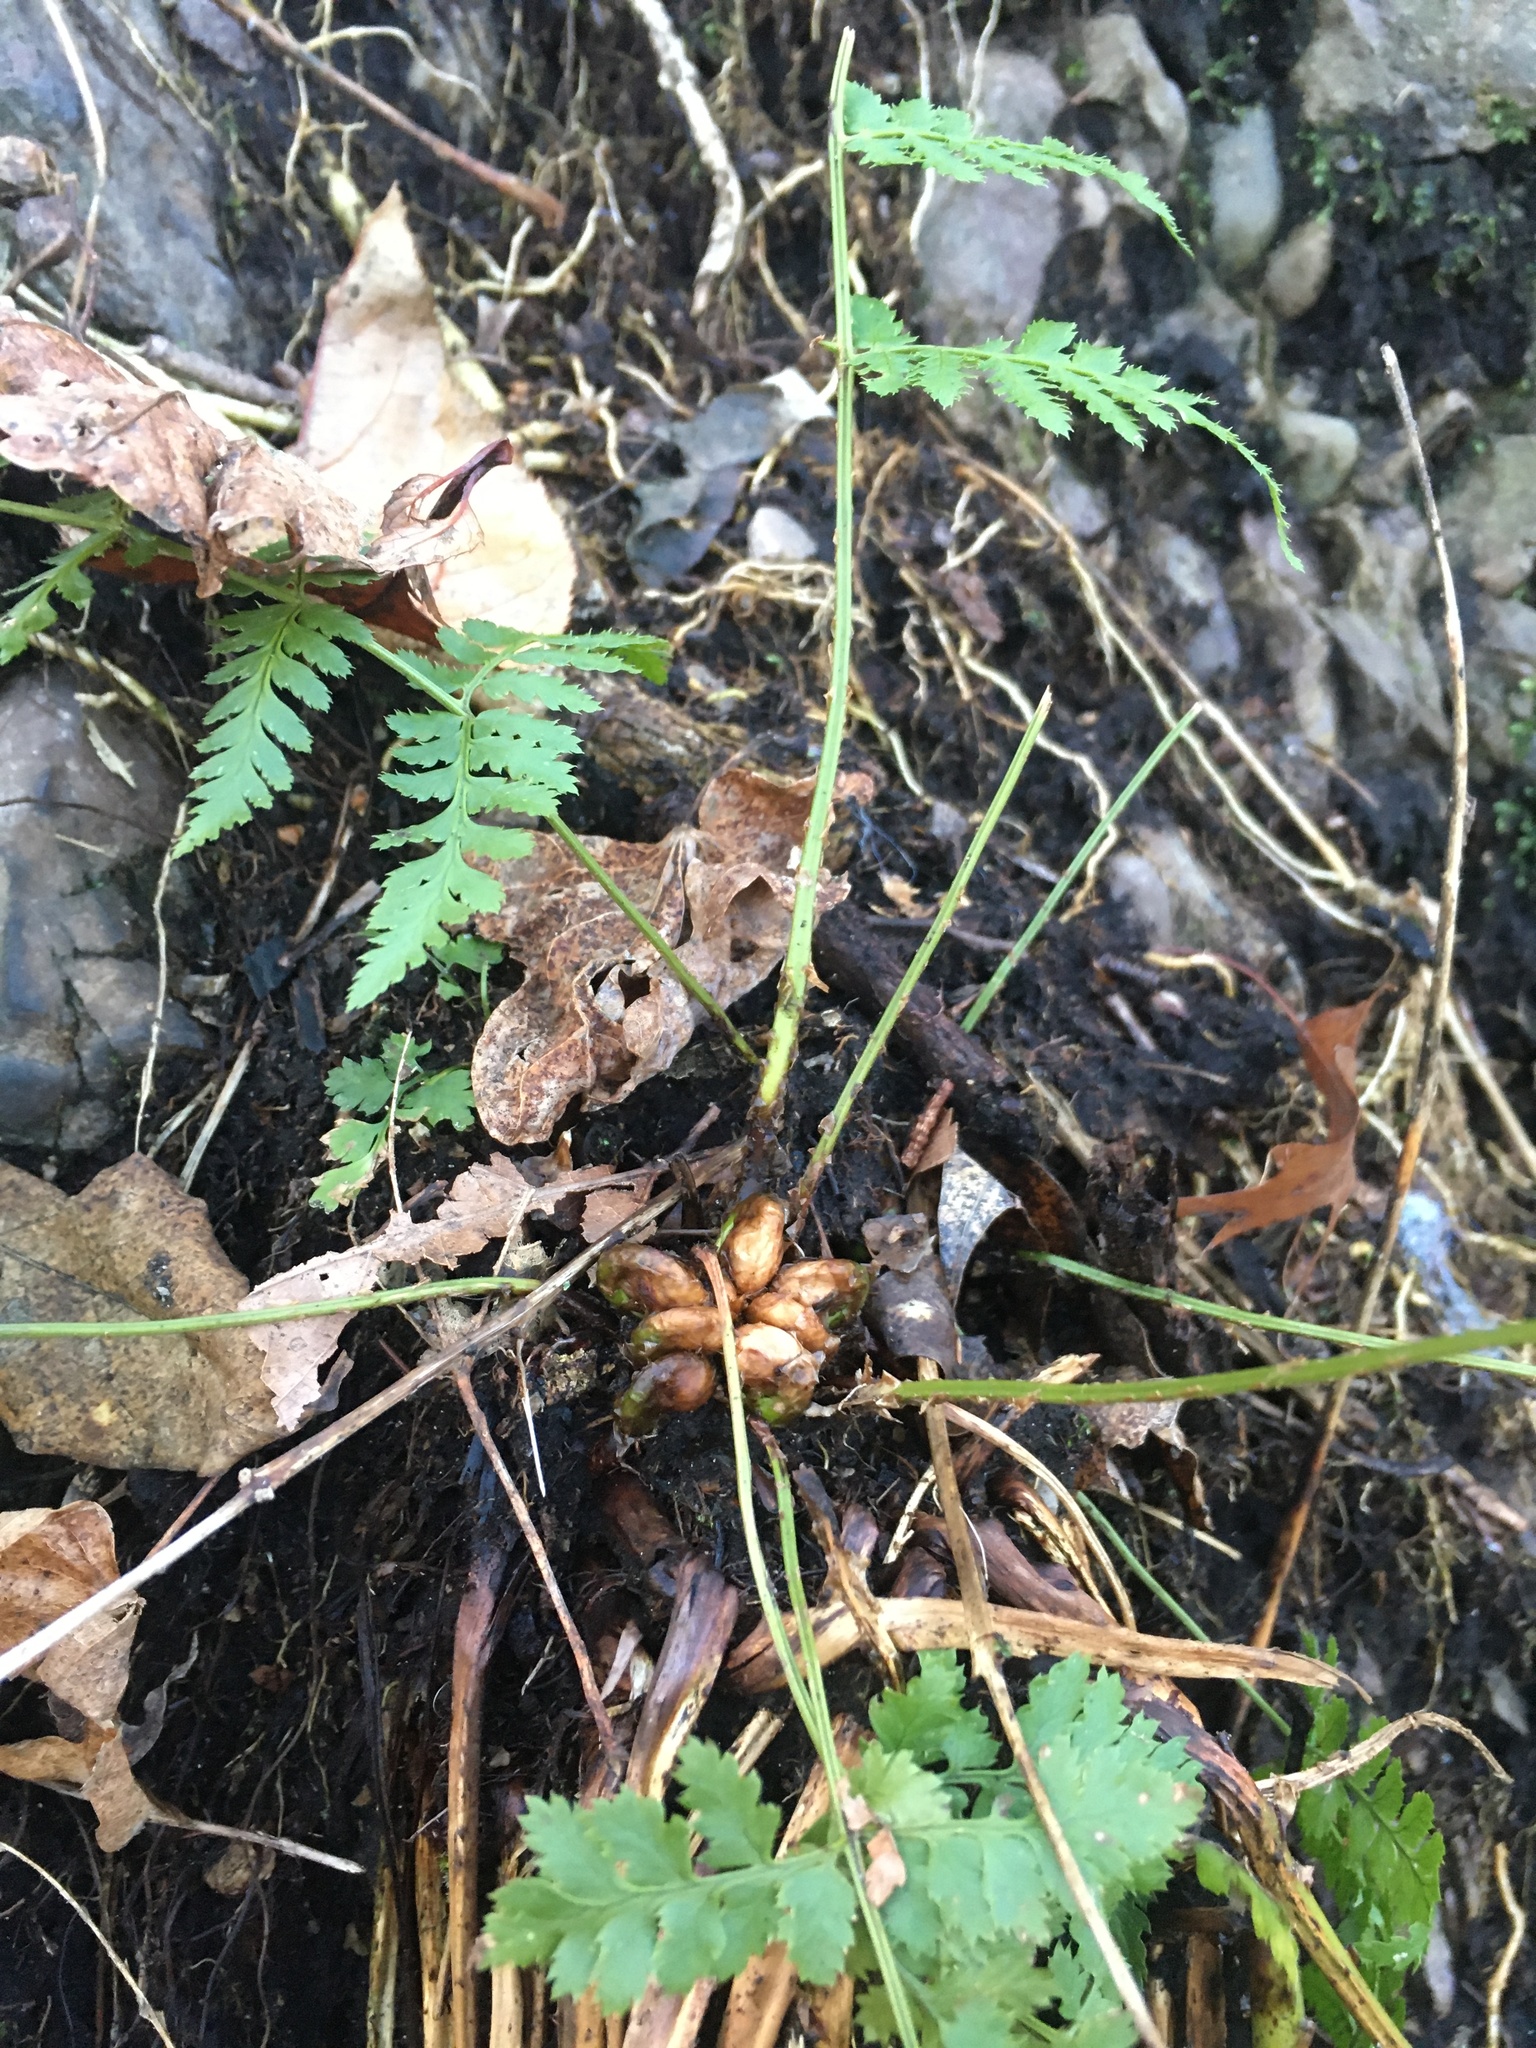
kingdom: Plantae
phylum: Tracheophyta
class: Polypodiopsida
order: Polypodiales
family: Dryopteridaceae
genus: Dryopteris
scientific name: Dryopteris intermedia
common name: Evergreen wood fern
